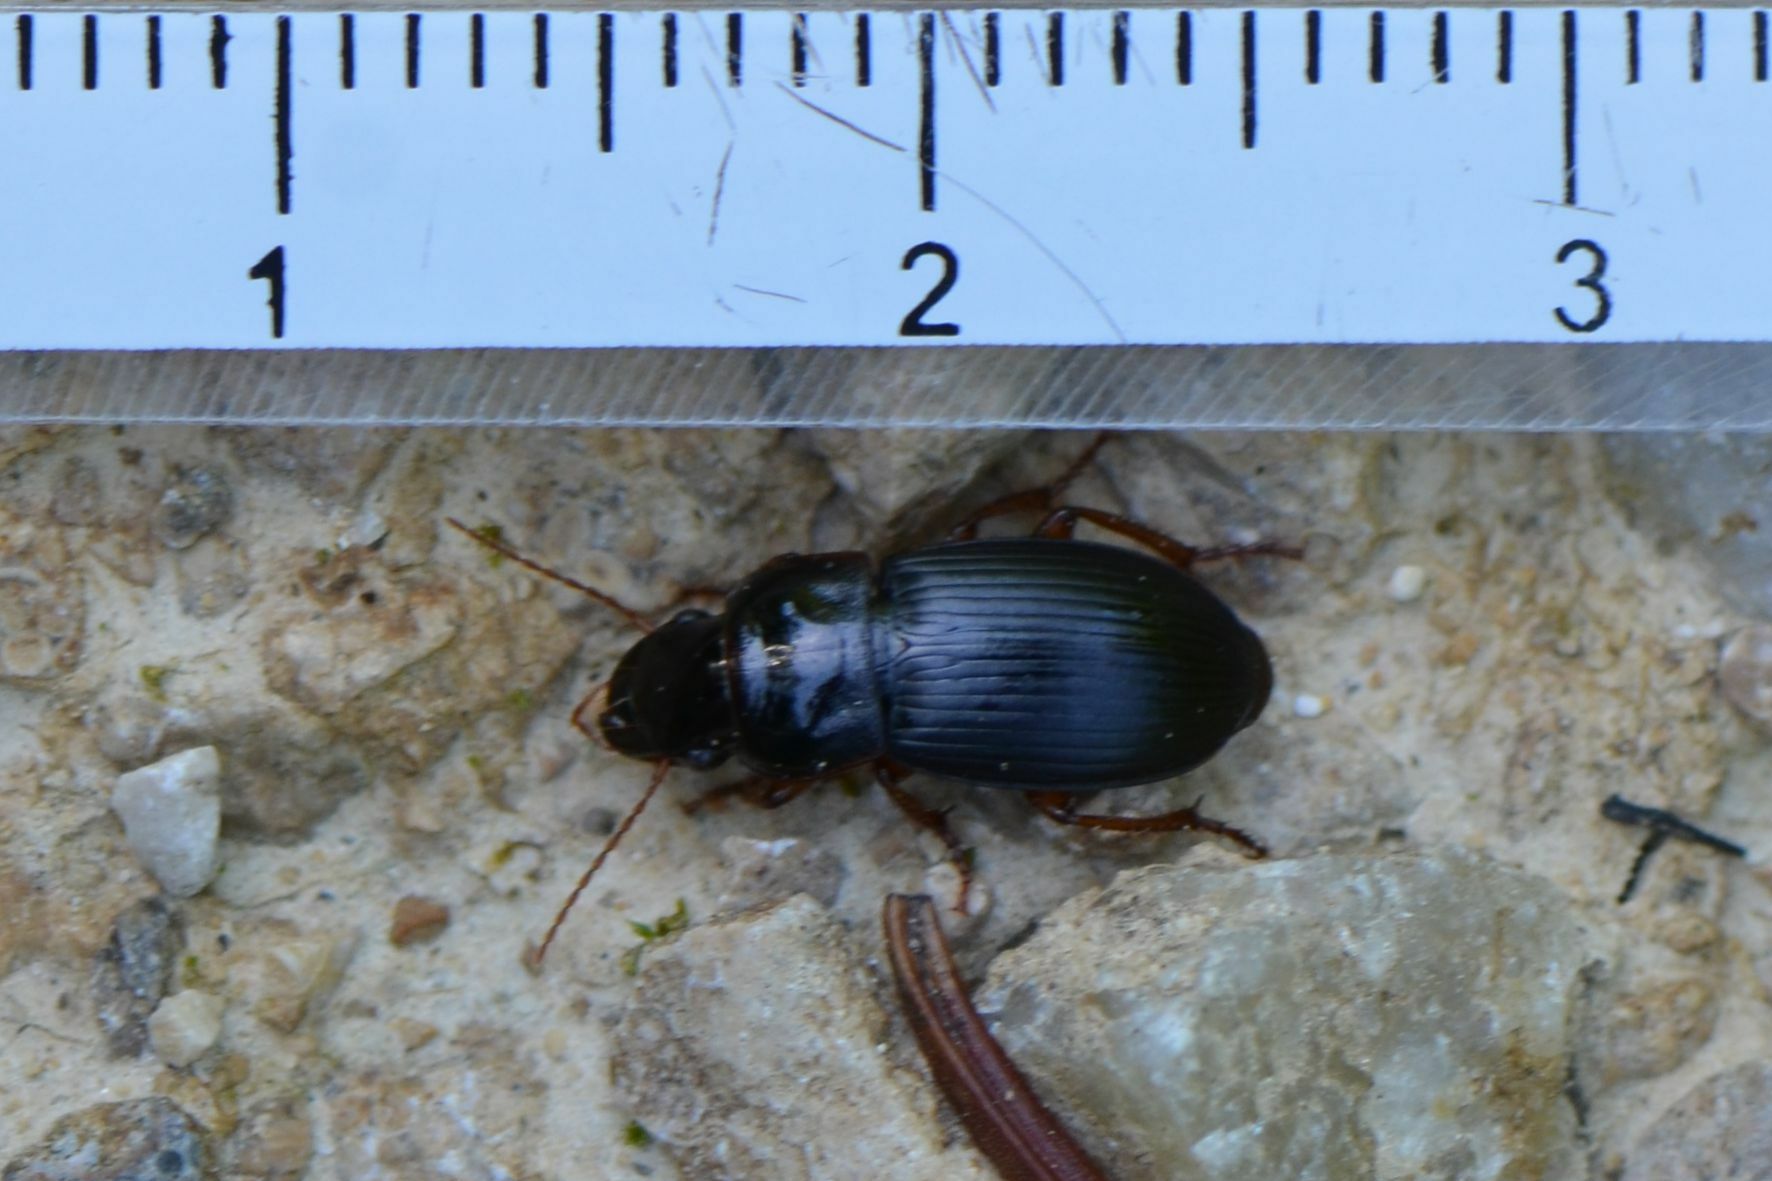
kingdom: Animalia
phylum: Arthropoda
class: Insecta
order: Coleoptera
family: Carabidae
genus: Harpalus
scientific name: Harpalus latus
